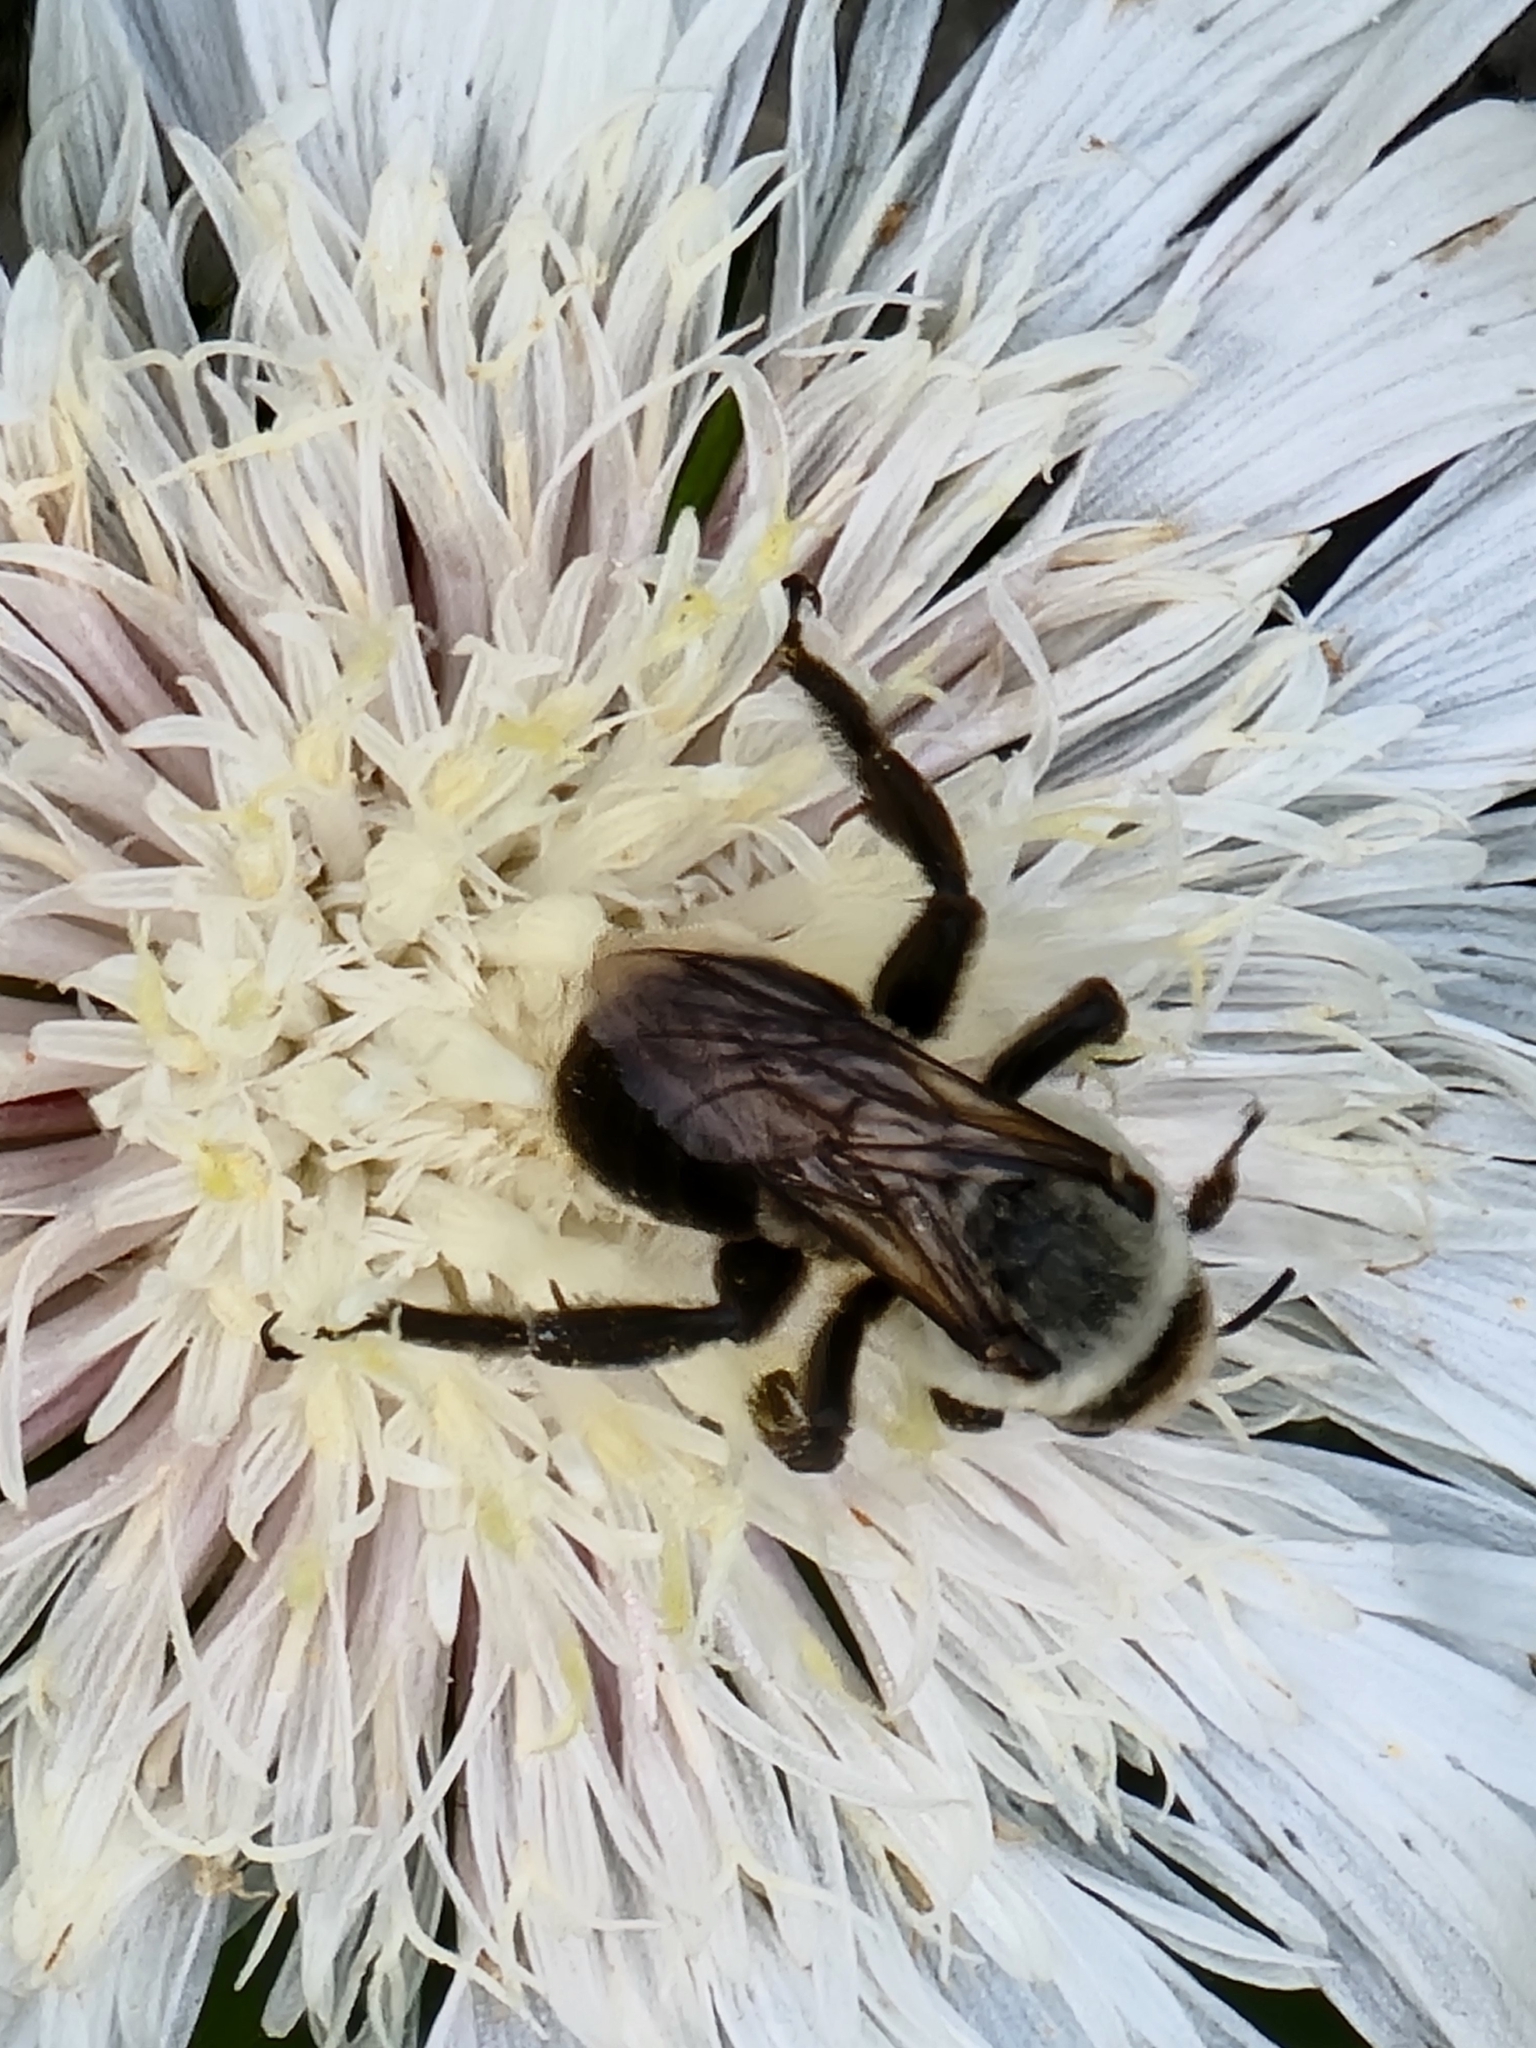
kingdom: Animalia
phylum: Arthropoda
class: Insecta
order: Hymenoptera
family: Apidae
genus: Ptilothrix
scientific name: Ptilothrix bombiformis
